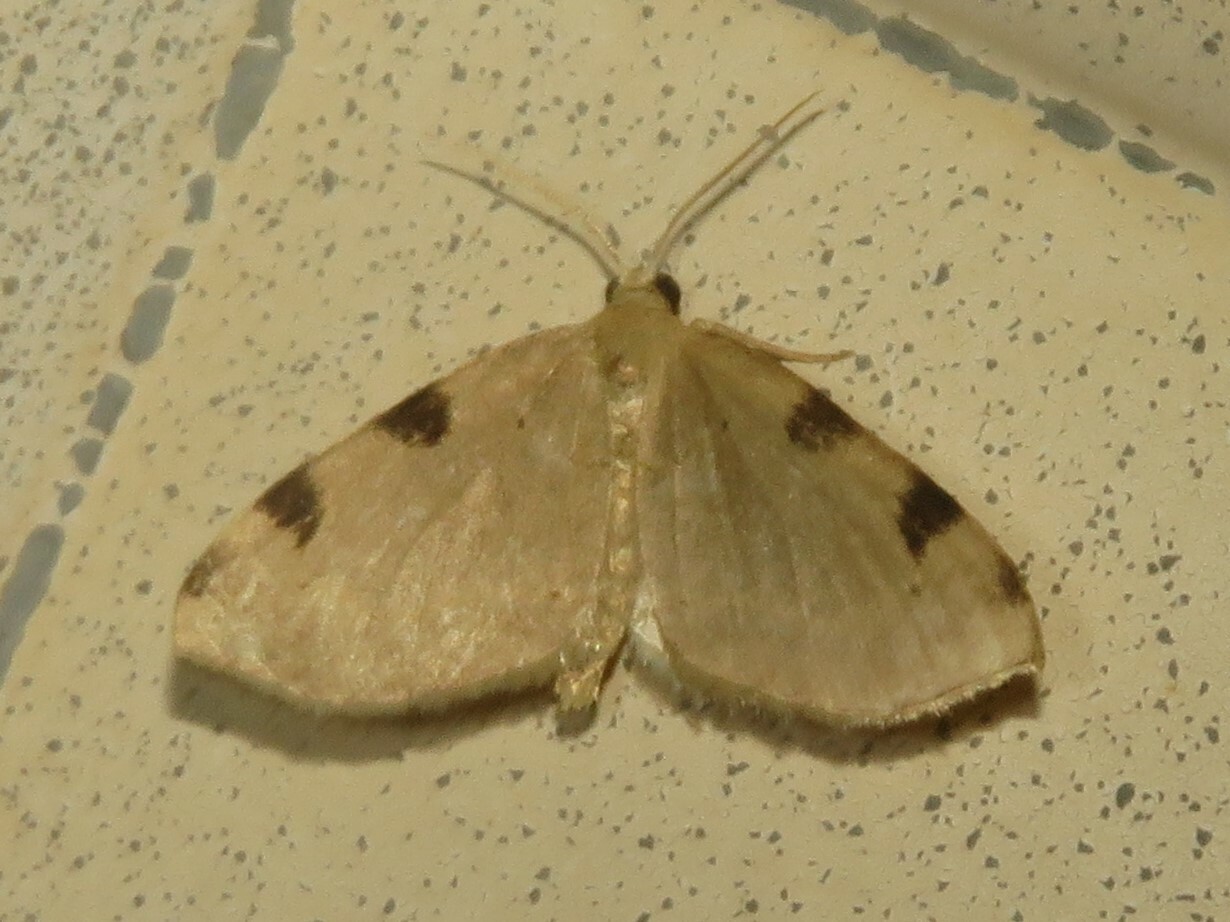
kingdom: Animalia
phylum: Arthropoda
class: Insecta
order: Lepidoptera
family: Geometridae
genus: Heterophleps
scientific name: Heterophleps triguttaria
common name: Three-spotted fillip
